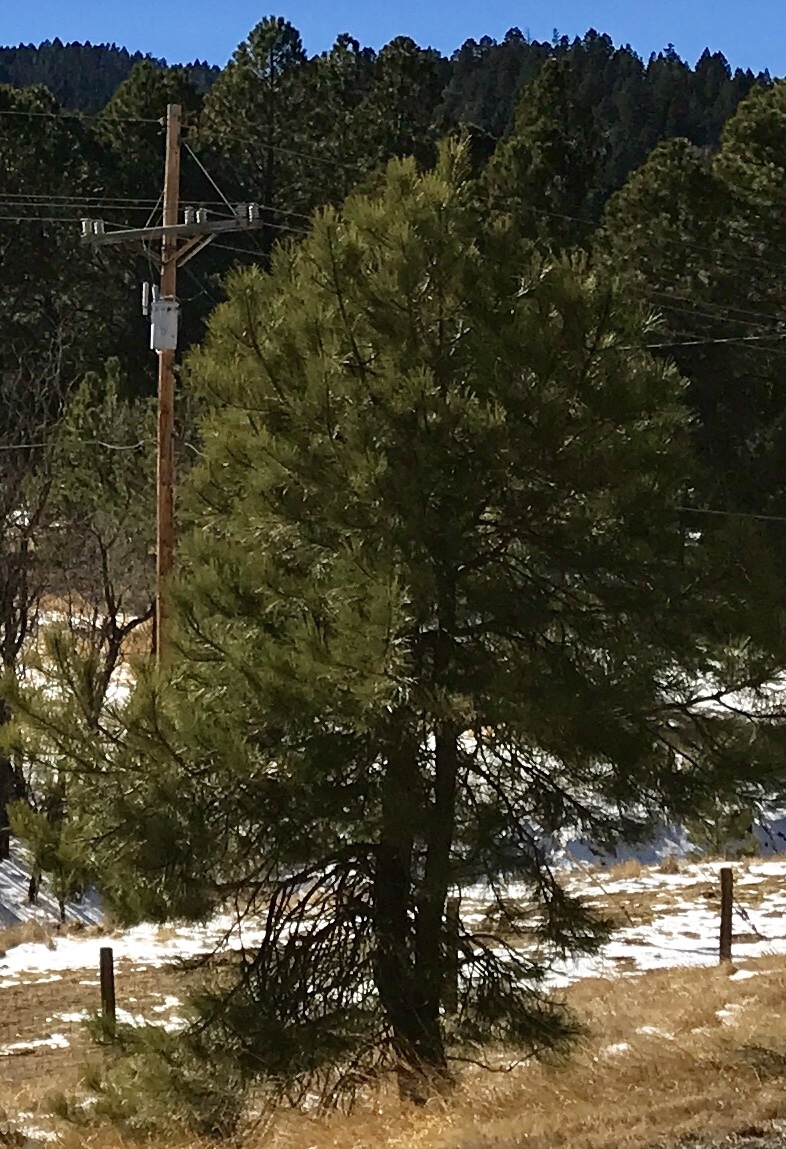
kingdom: Plantae
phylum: Tracheophyta
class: Pinopsida
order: Pinales
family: Pinaceae
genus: Pinus
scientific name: Pinus ponderosa
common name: Western yellow-pine
